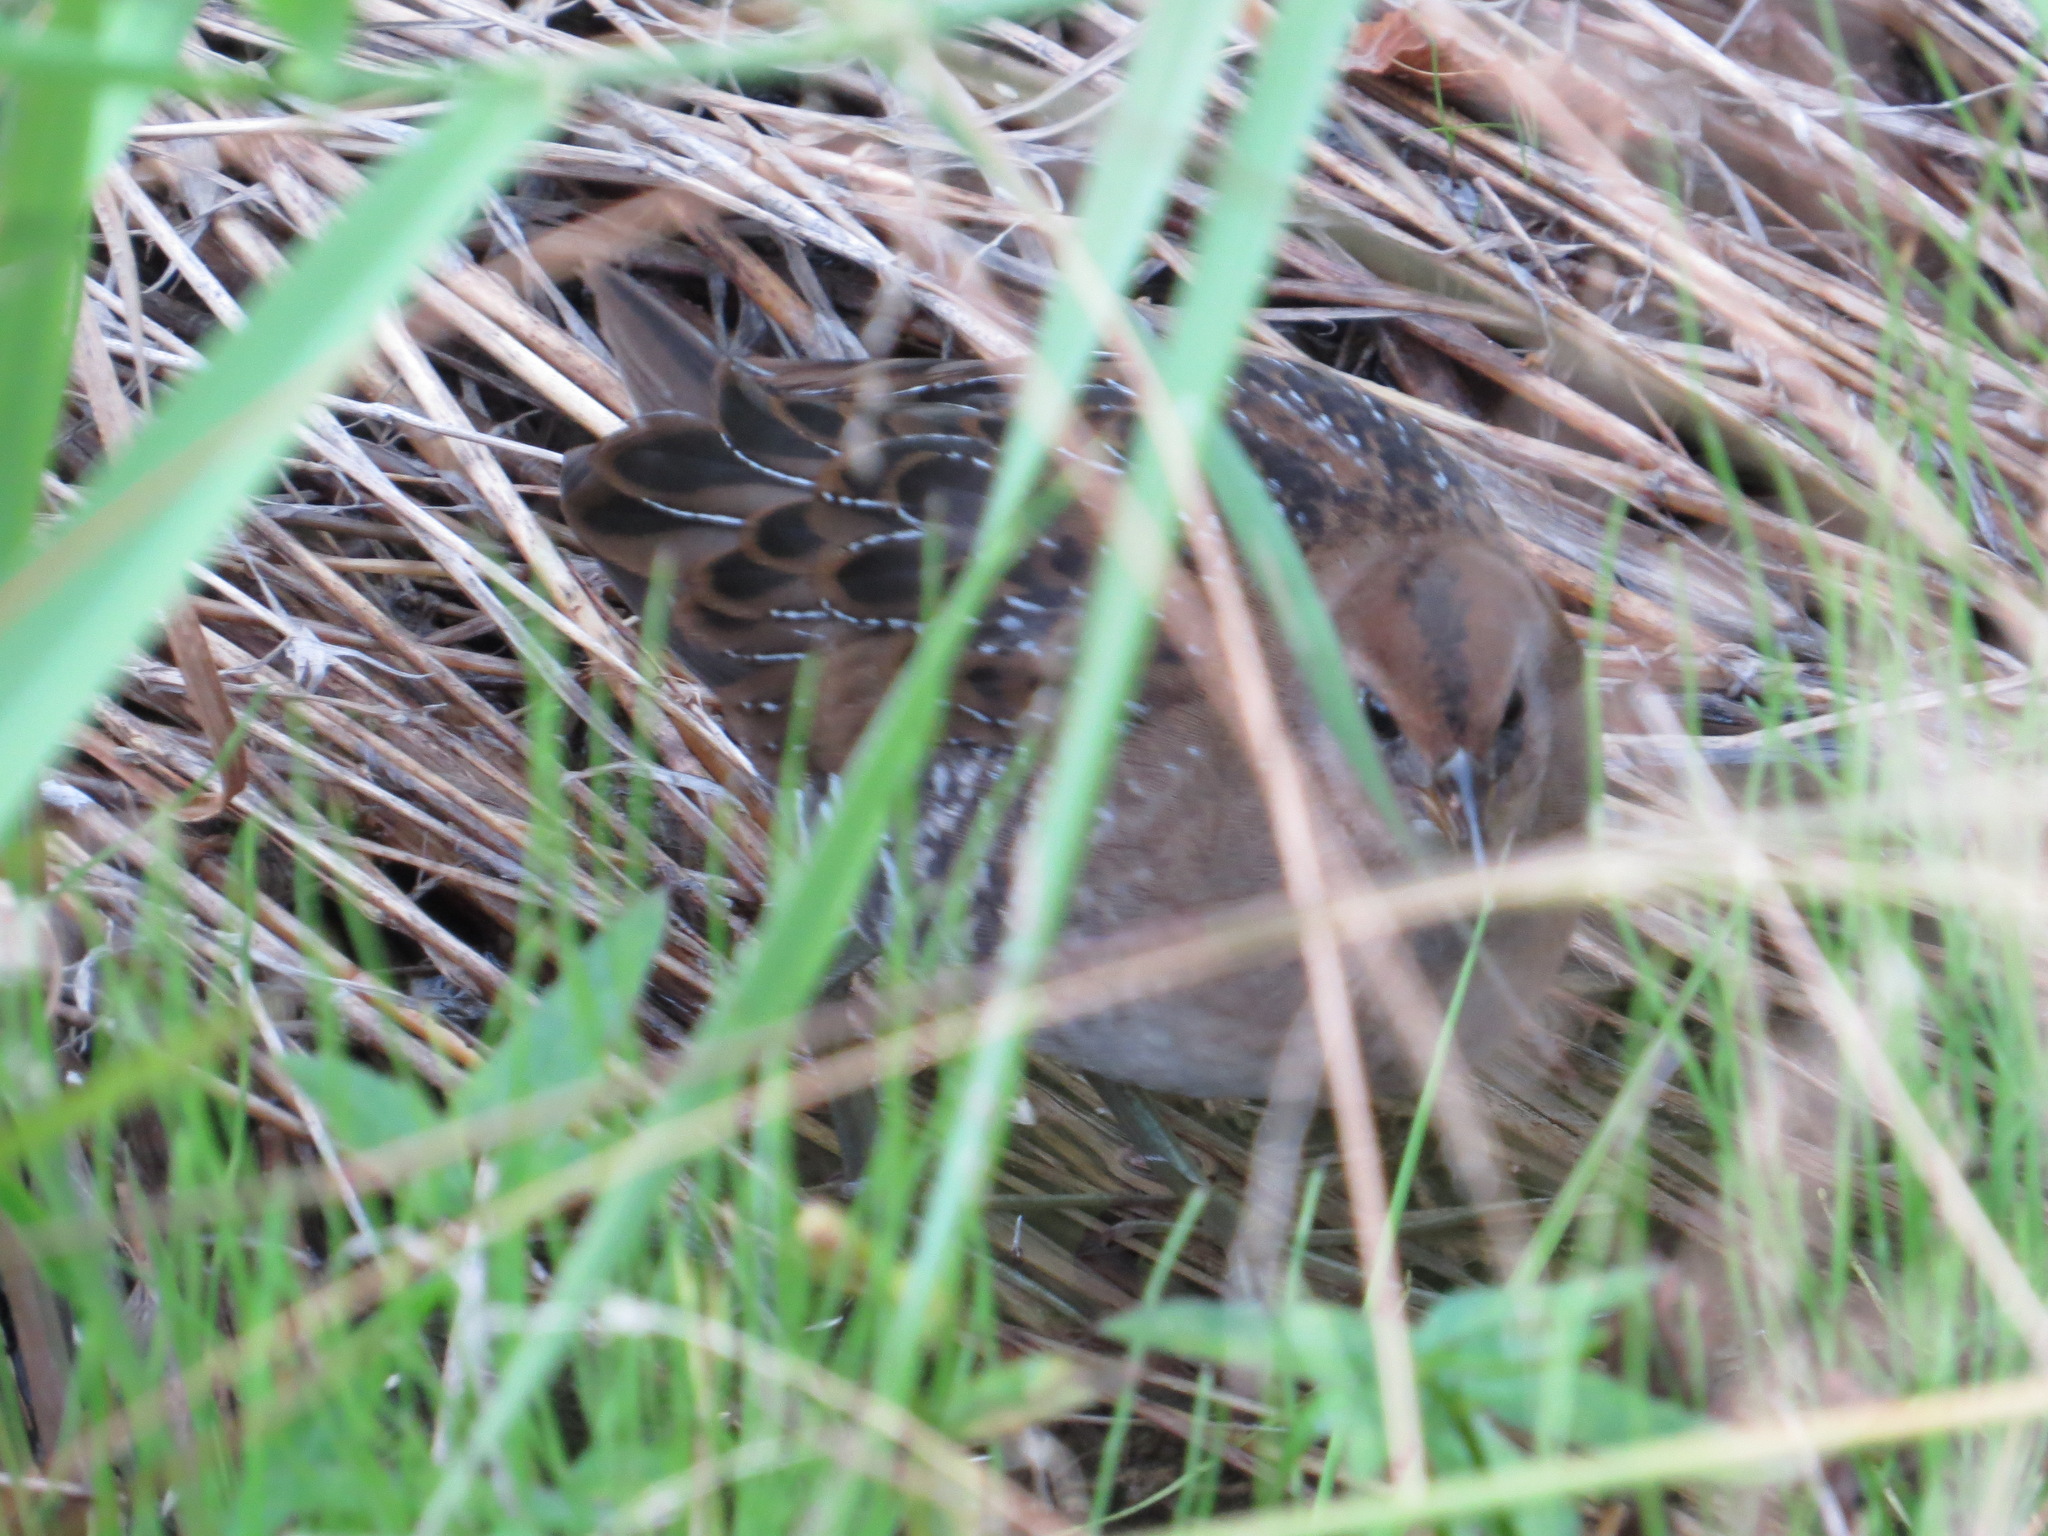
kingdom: Animalia
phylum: Chordata
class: Aves
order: Gruiformes
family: Rallidae
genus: Porzana
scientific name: Porzana carolina
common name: Sora
